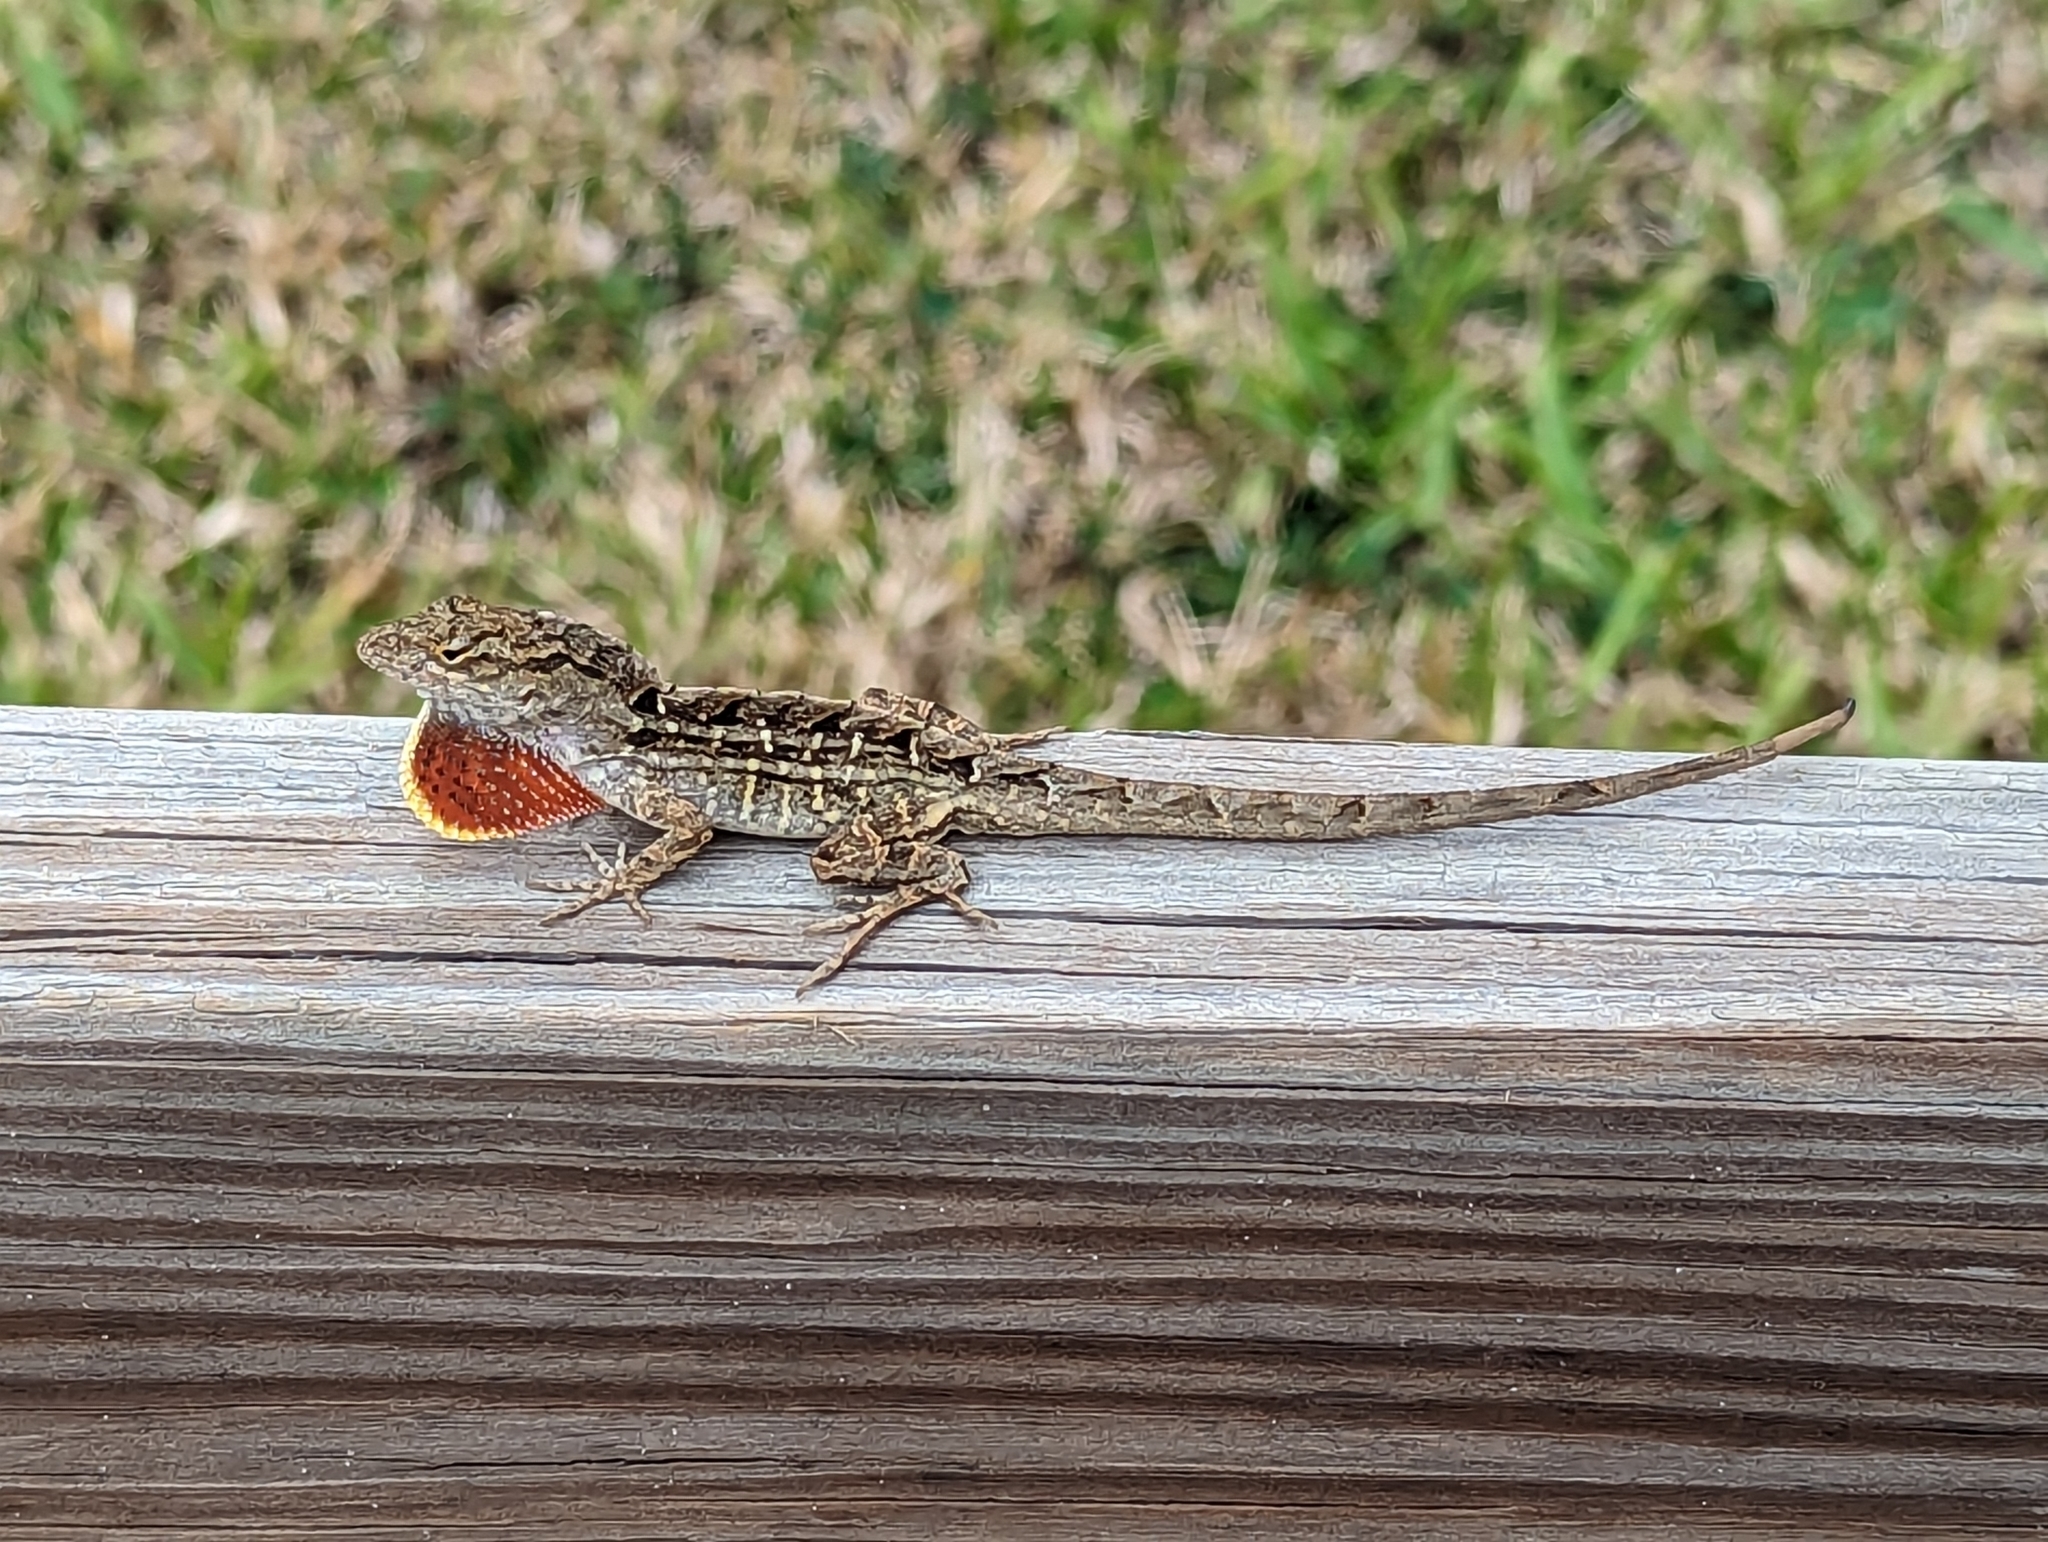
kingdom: Animalia
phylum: Chordata
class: Squamata
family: Dactyloidae
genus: Anolis
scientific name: Anolis sagrei
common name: Brown anole
